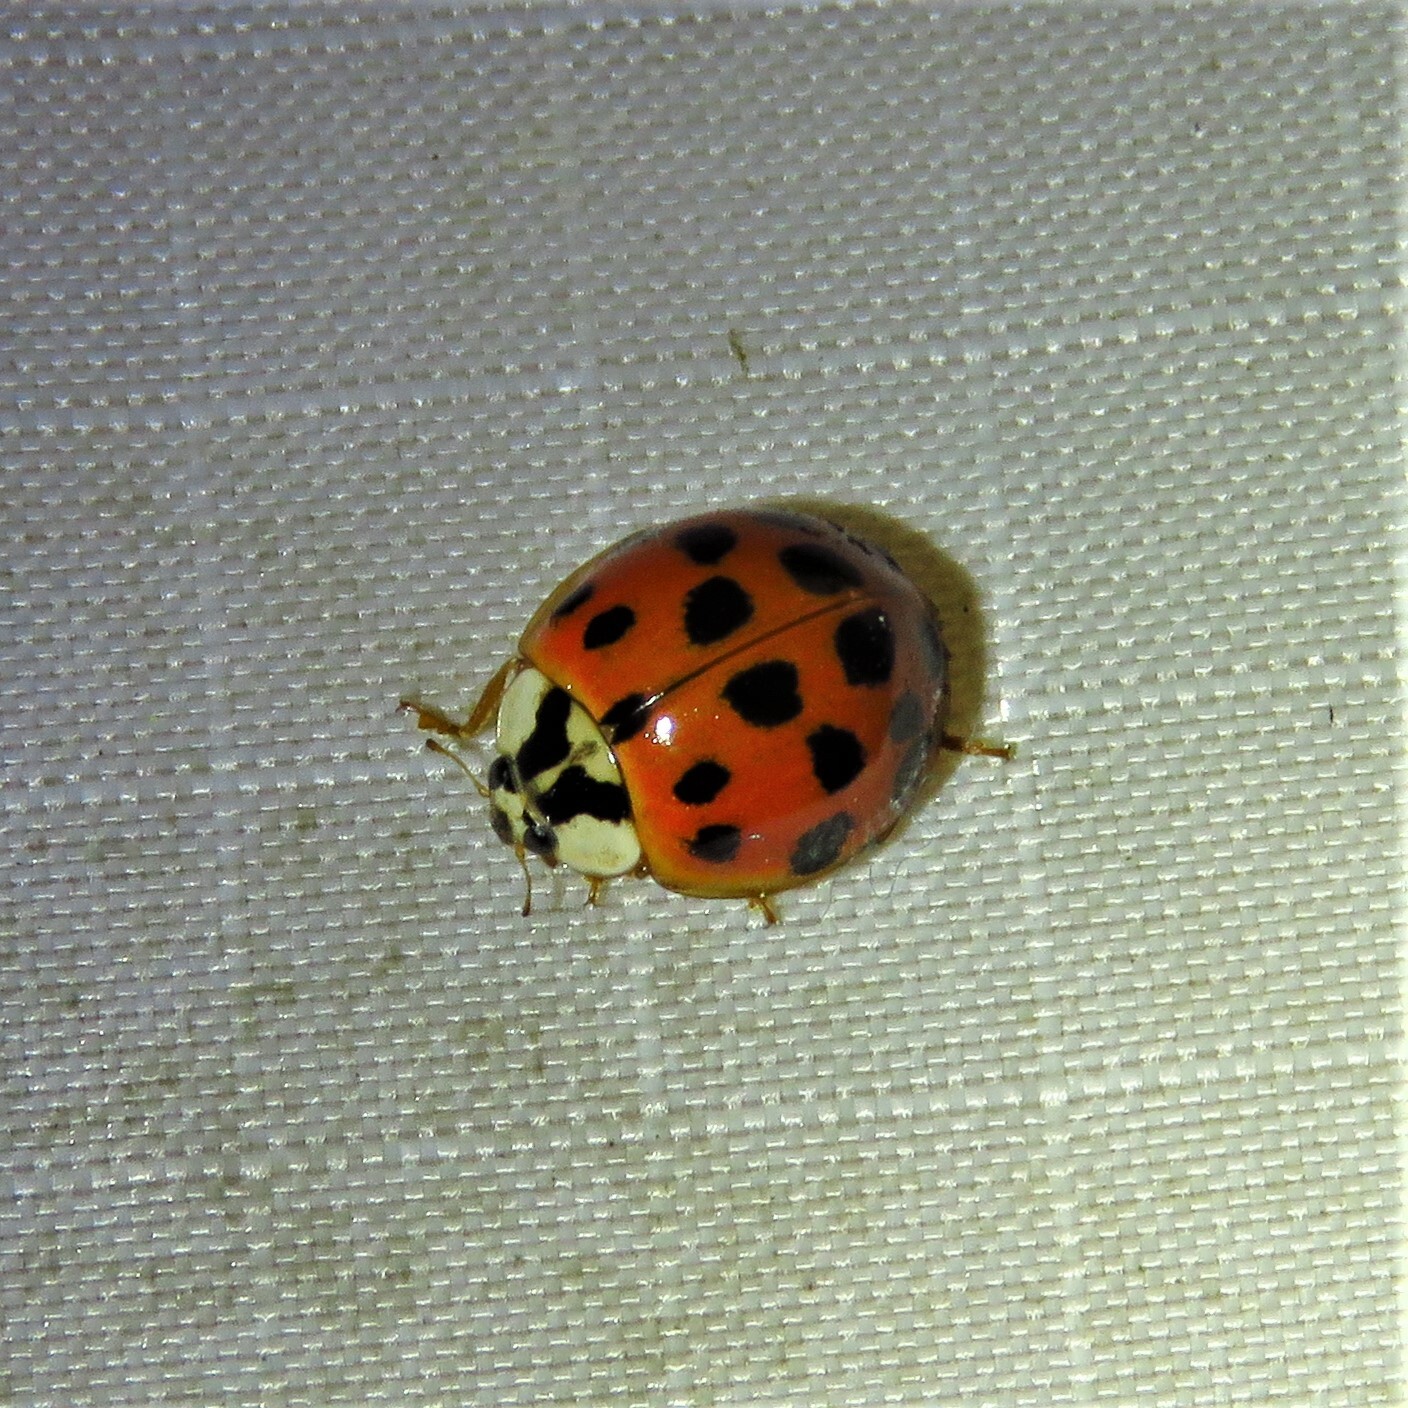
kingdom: Animalia
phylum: Arthropoda
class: Insecta
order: Coleoptera
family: Coccinellidae
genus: Harmonia
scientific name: Harmonia axyridis
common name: Harlequin ladybird
